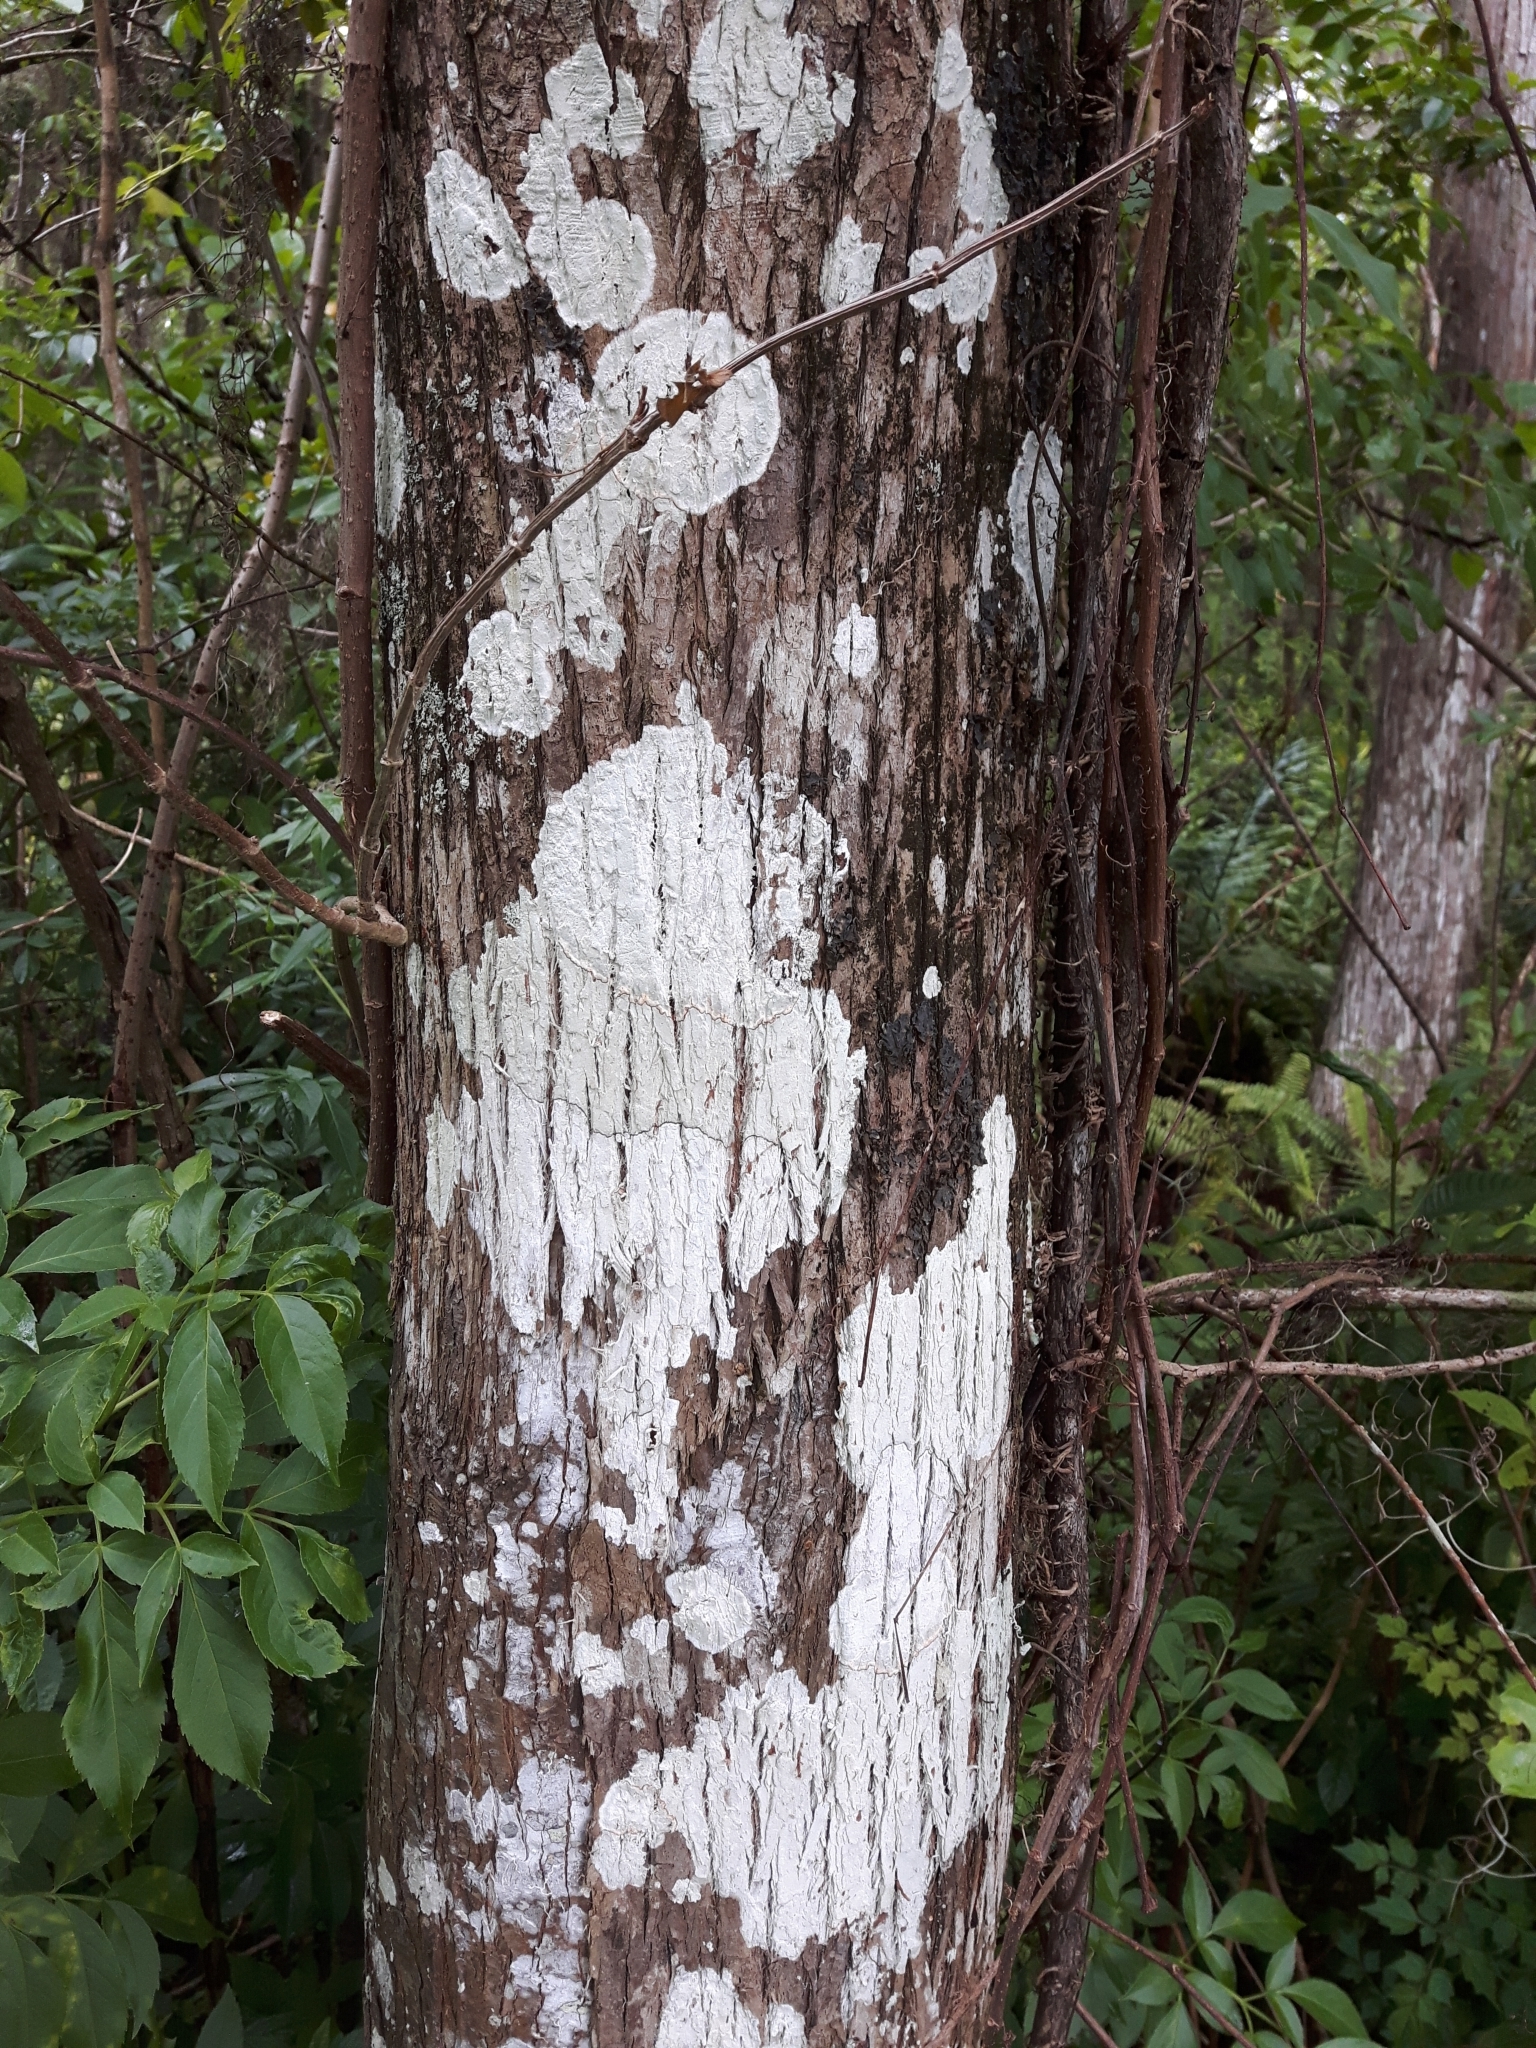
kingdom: Fungi
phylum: Ascomycota
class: Arthoniomycetes
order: Arthoniales
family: Arthoniaceae
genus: Cryptothecia
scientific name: Cryptothecia striata
